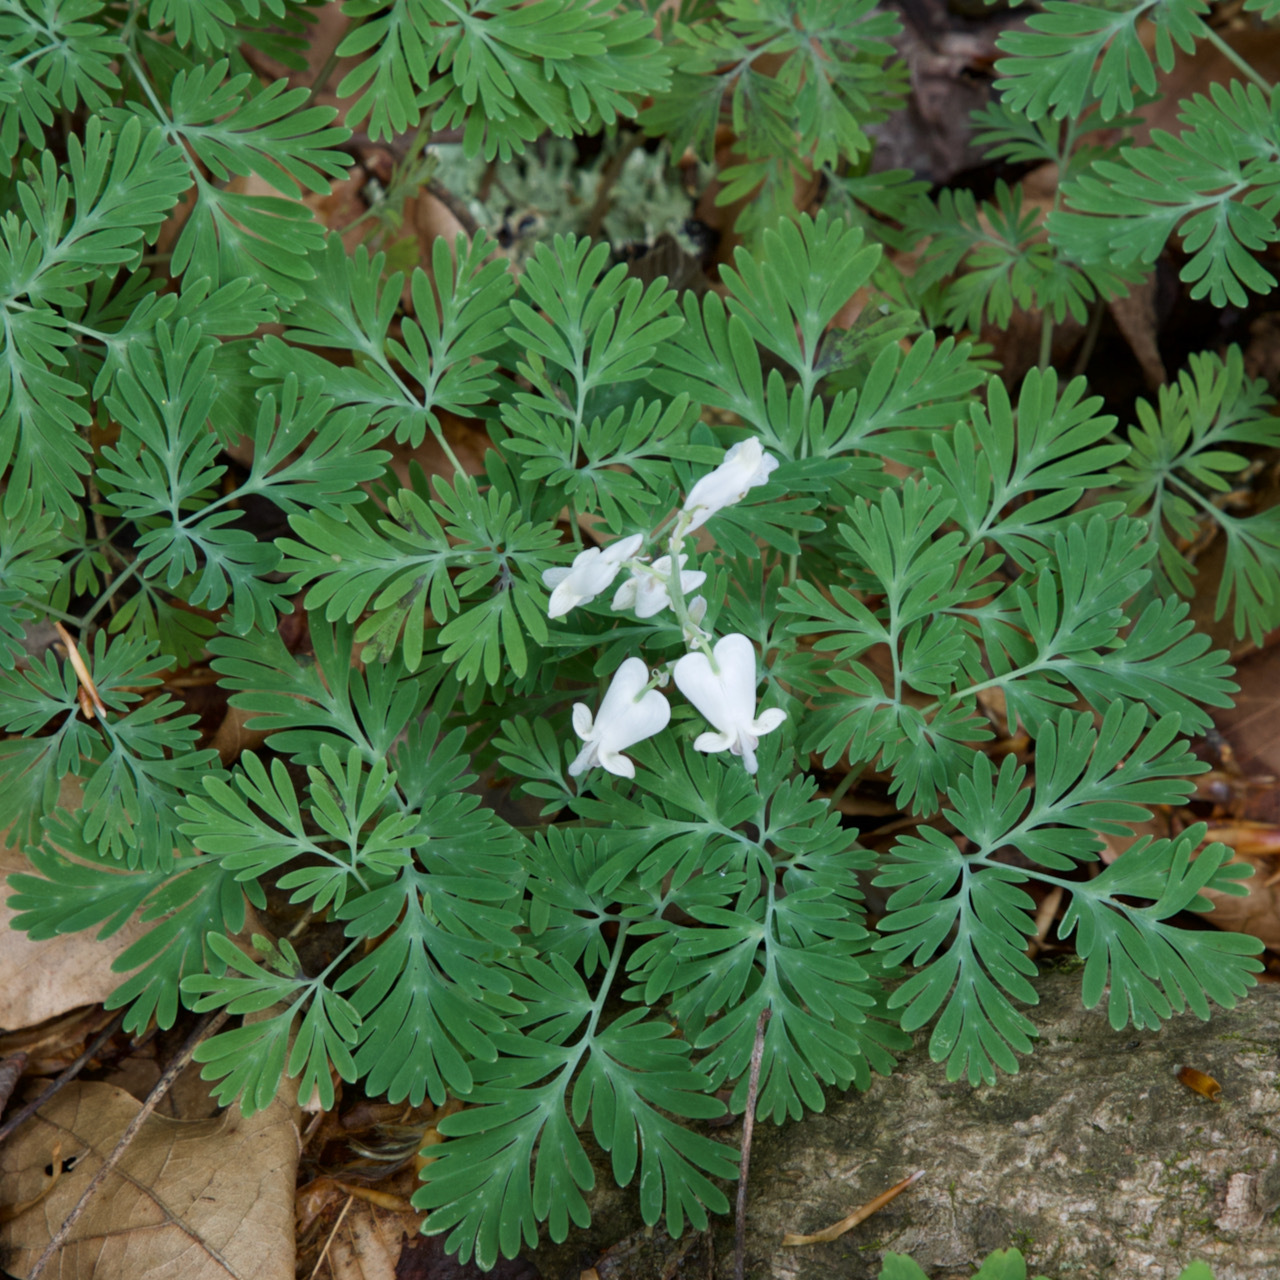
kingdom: Plantae
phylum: Tracheophyta
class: Magnoliopsida
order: Ranunculales
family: Papaveraceae
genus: Dicentra
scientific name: Dicentra canadensis
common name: Squirrel-corn
